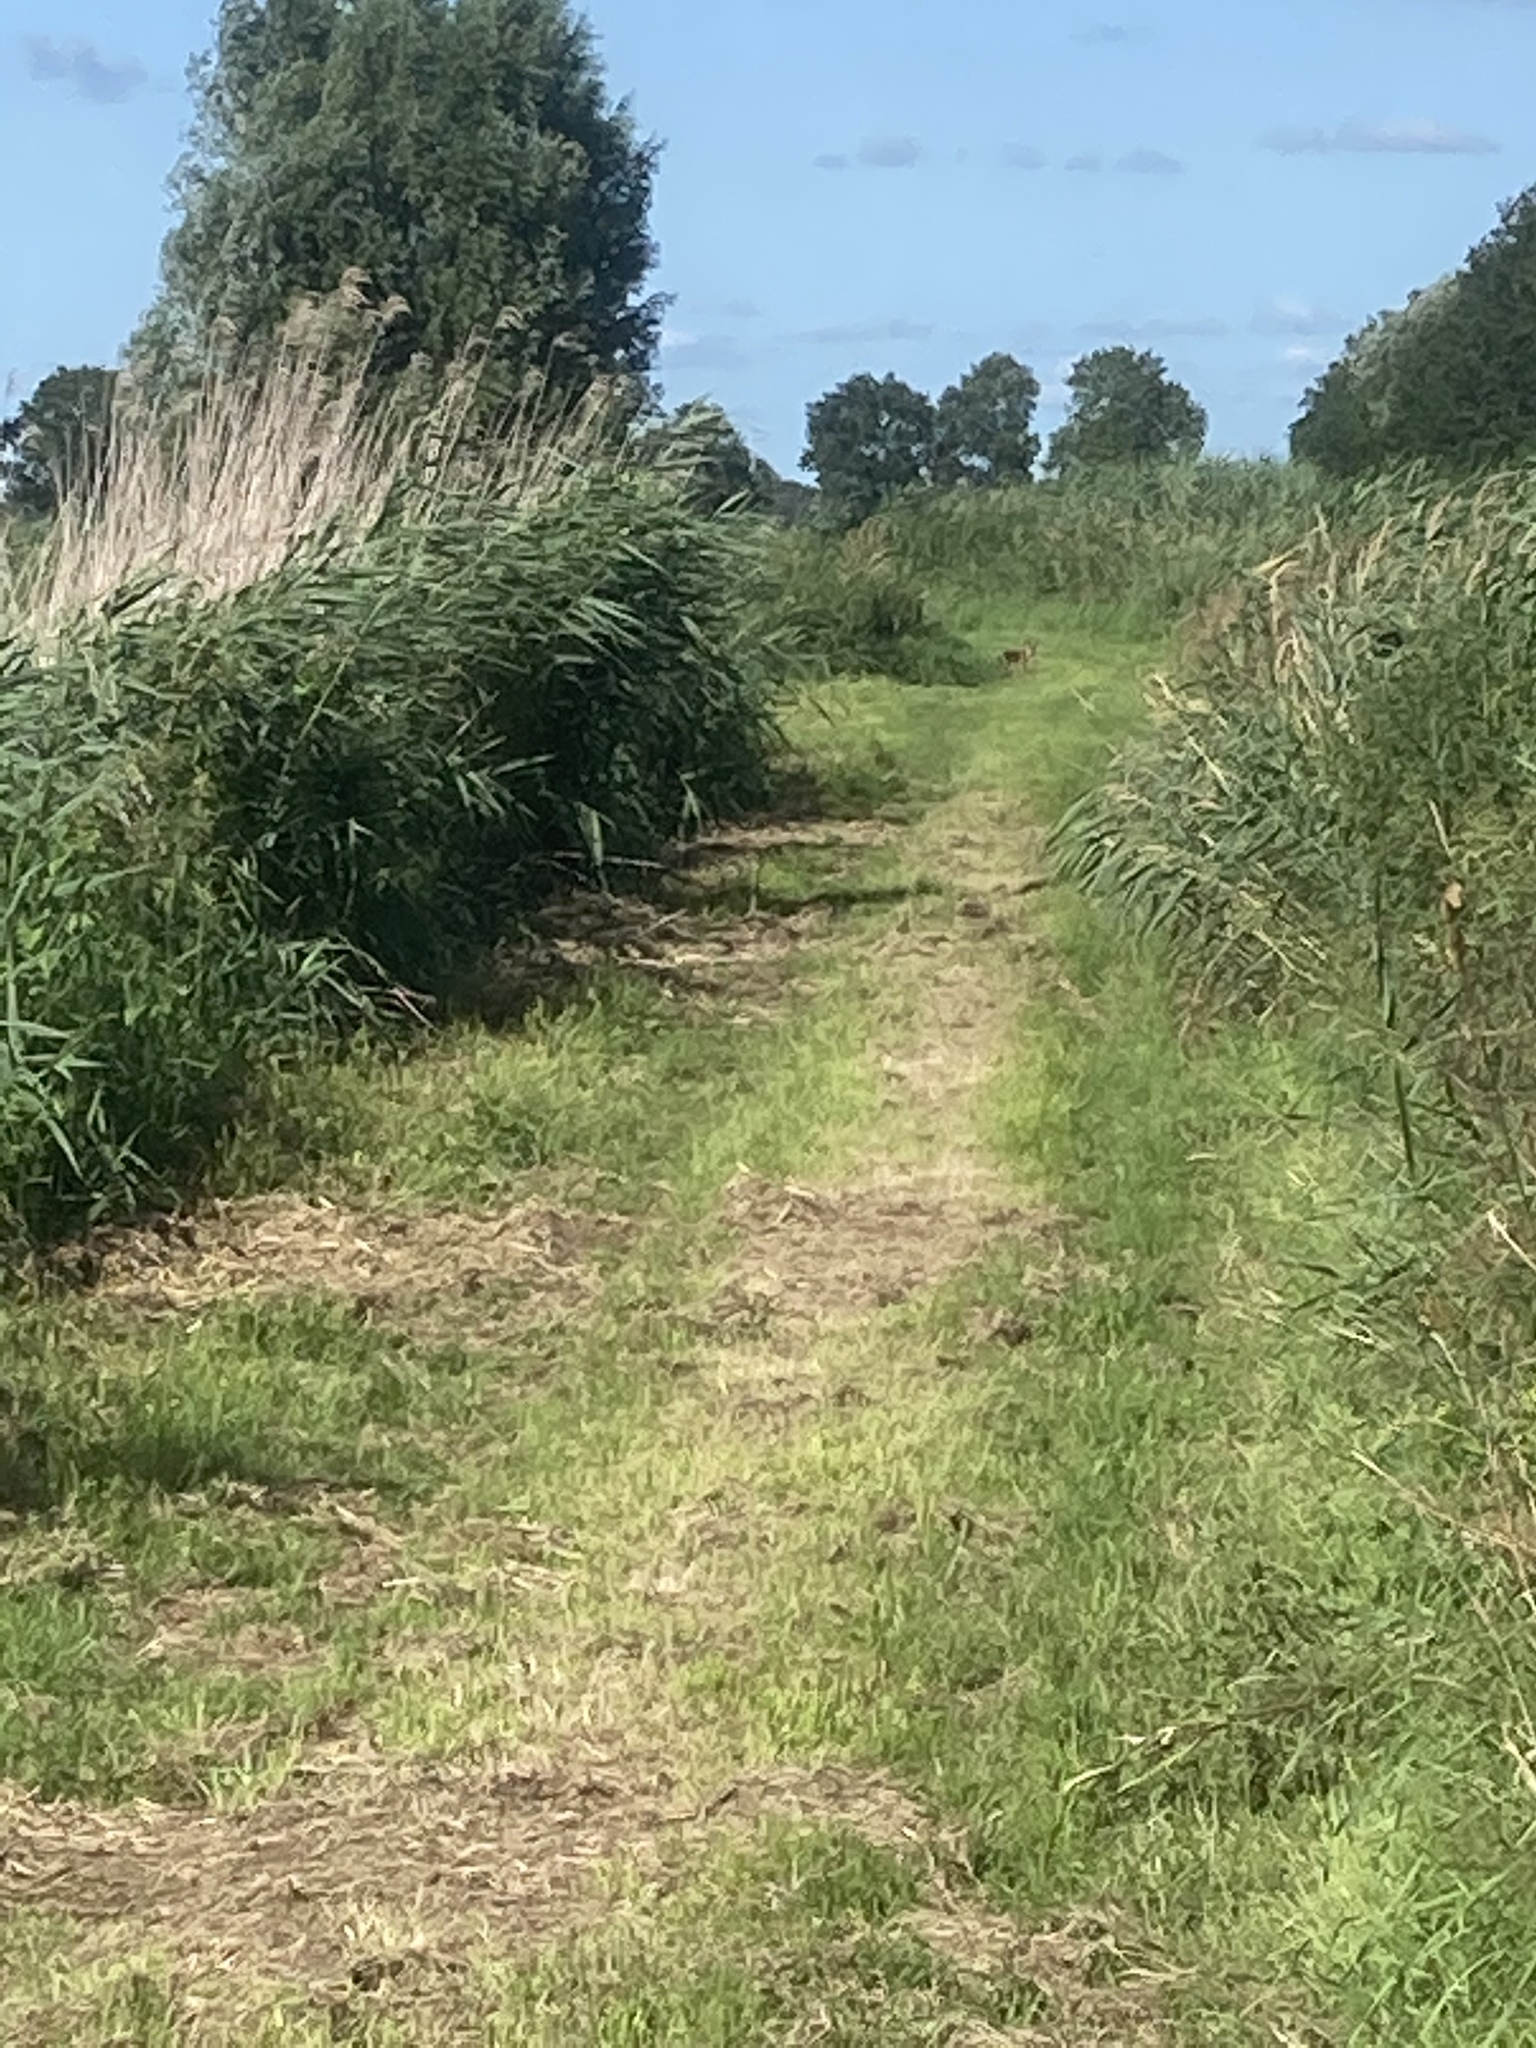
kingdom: Animalia
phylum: Chordata
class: Mammalia
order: Carnivora
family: Canidae
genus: Vulpes
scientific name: Vulpes vulpes
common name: Red fox
